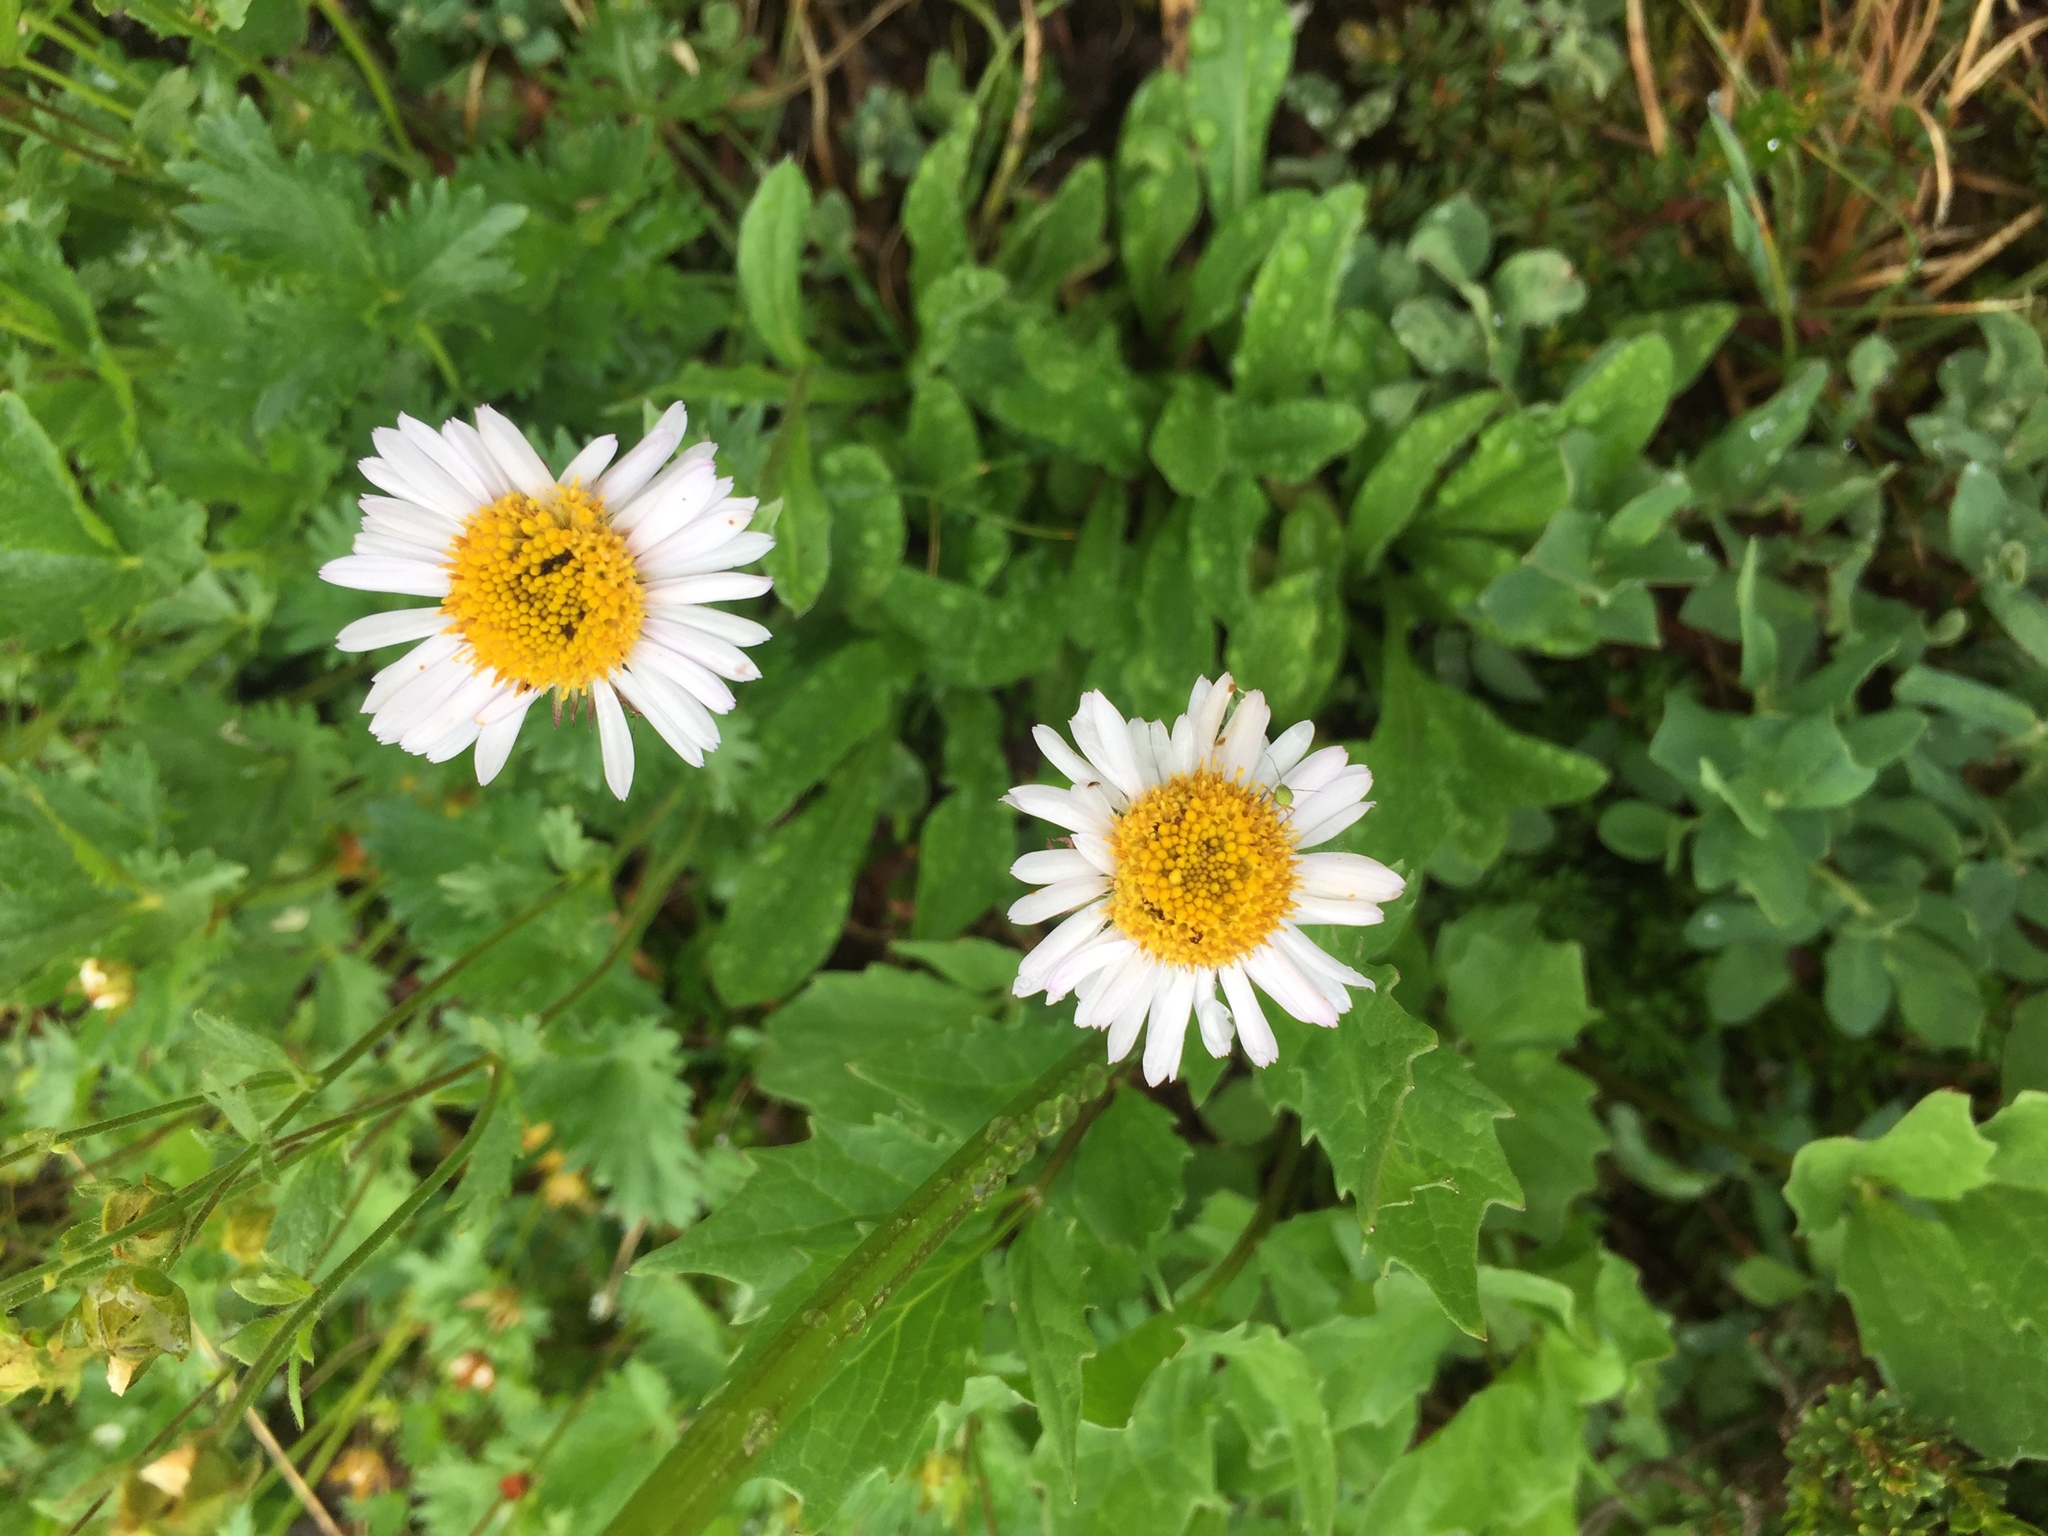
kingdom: Plantae
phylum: Tracheophyta
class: Magnoliopsida
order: Asterales
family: Asteraceae
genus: Erigeron
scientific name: Erigeron glacialis
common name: Subalpine fleabane
